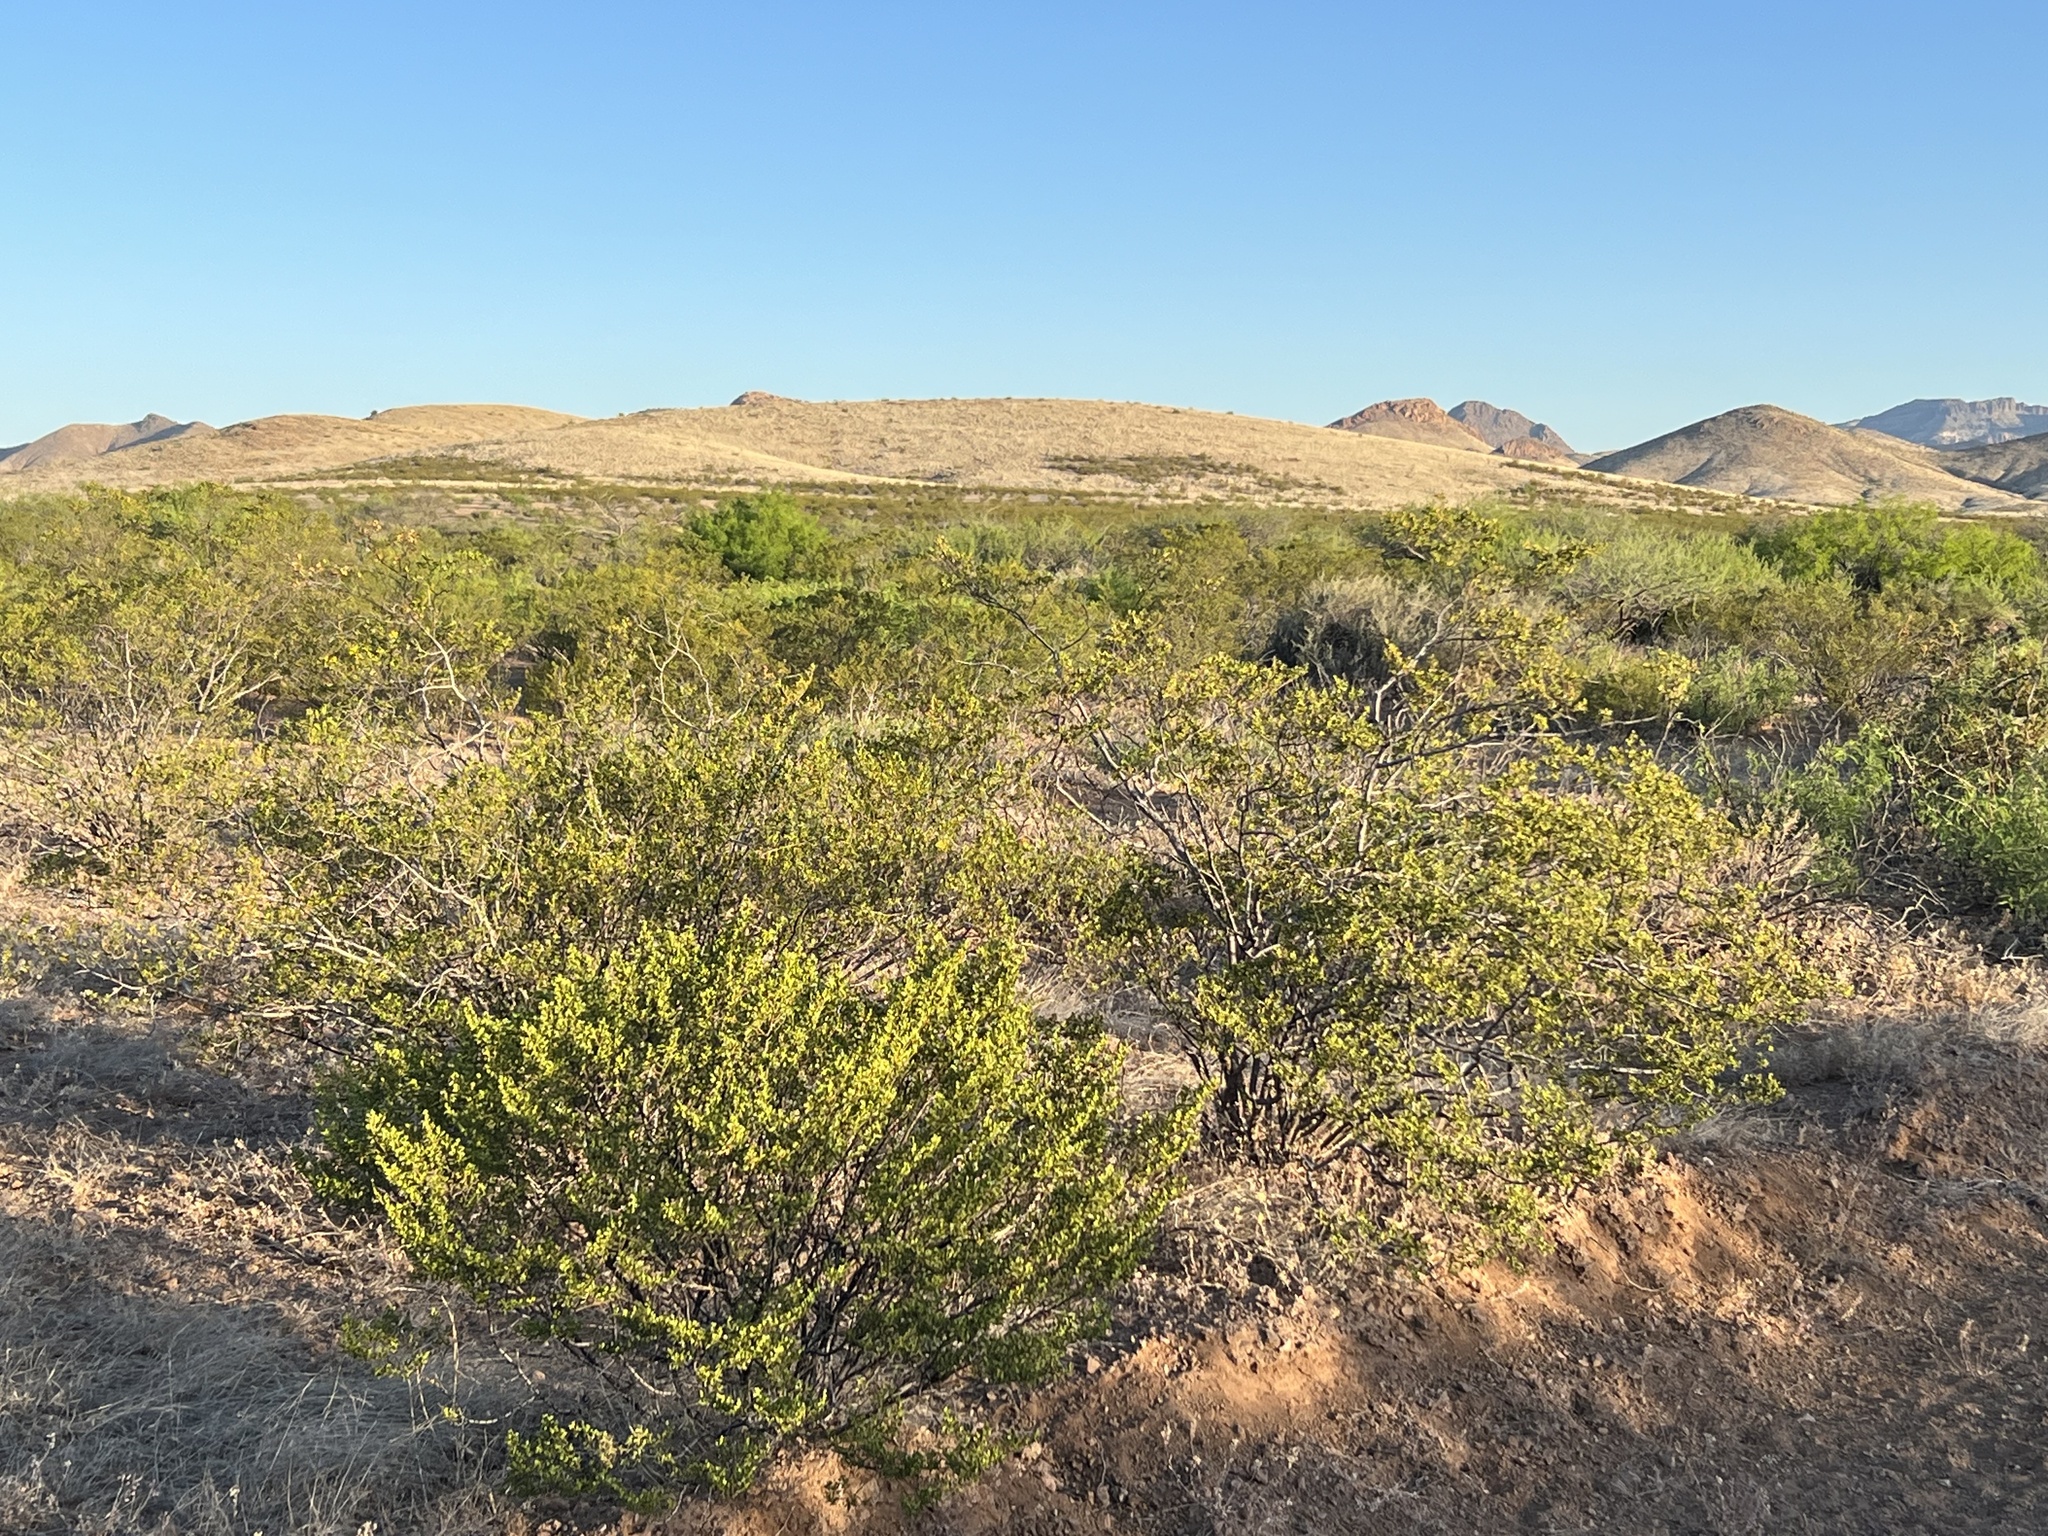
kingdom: Plantae
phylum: Tracheophyta
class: Magnoliopsida
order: Zygophyllales
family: Zygophyllaceae
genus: Larrea
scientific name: Larrea tridentata
